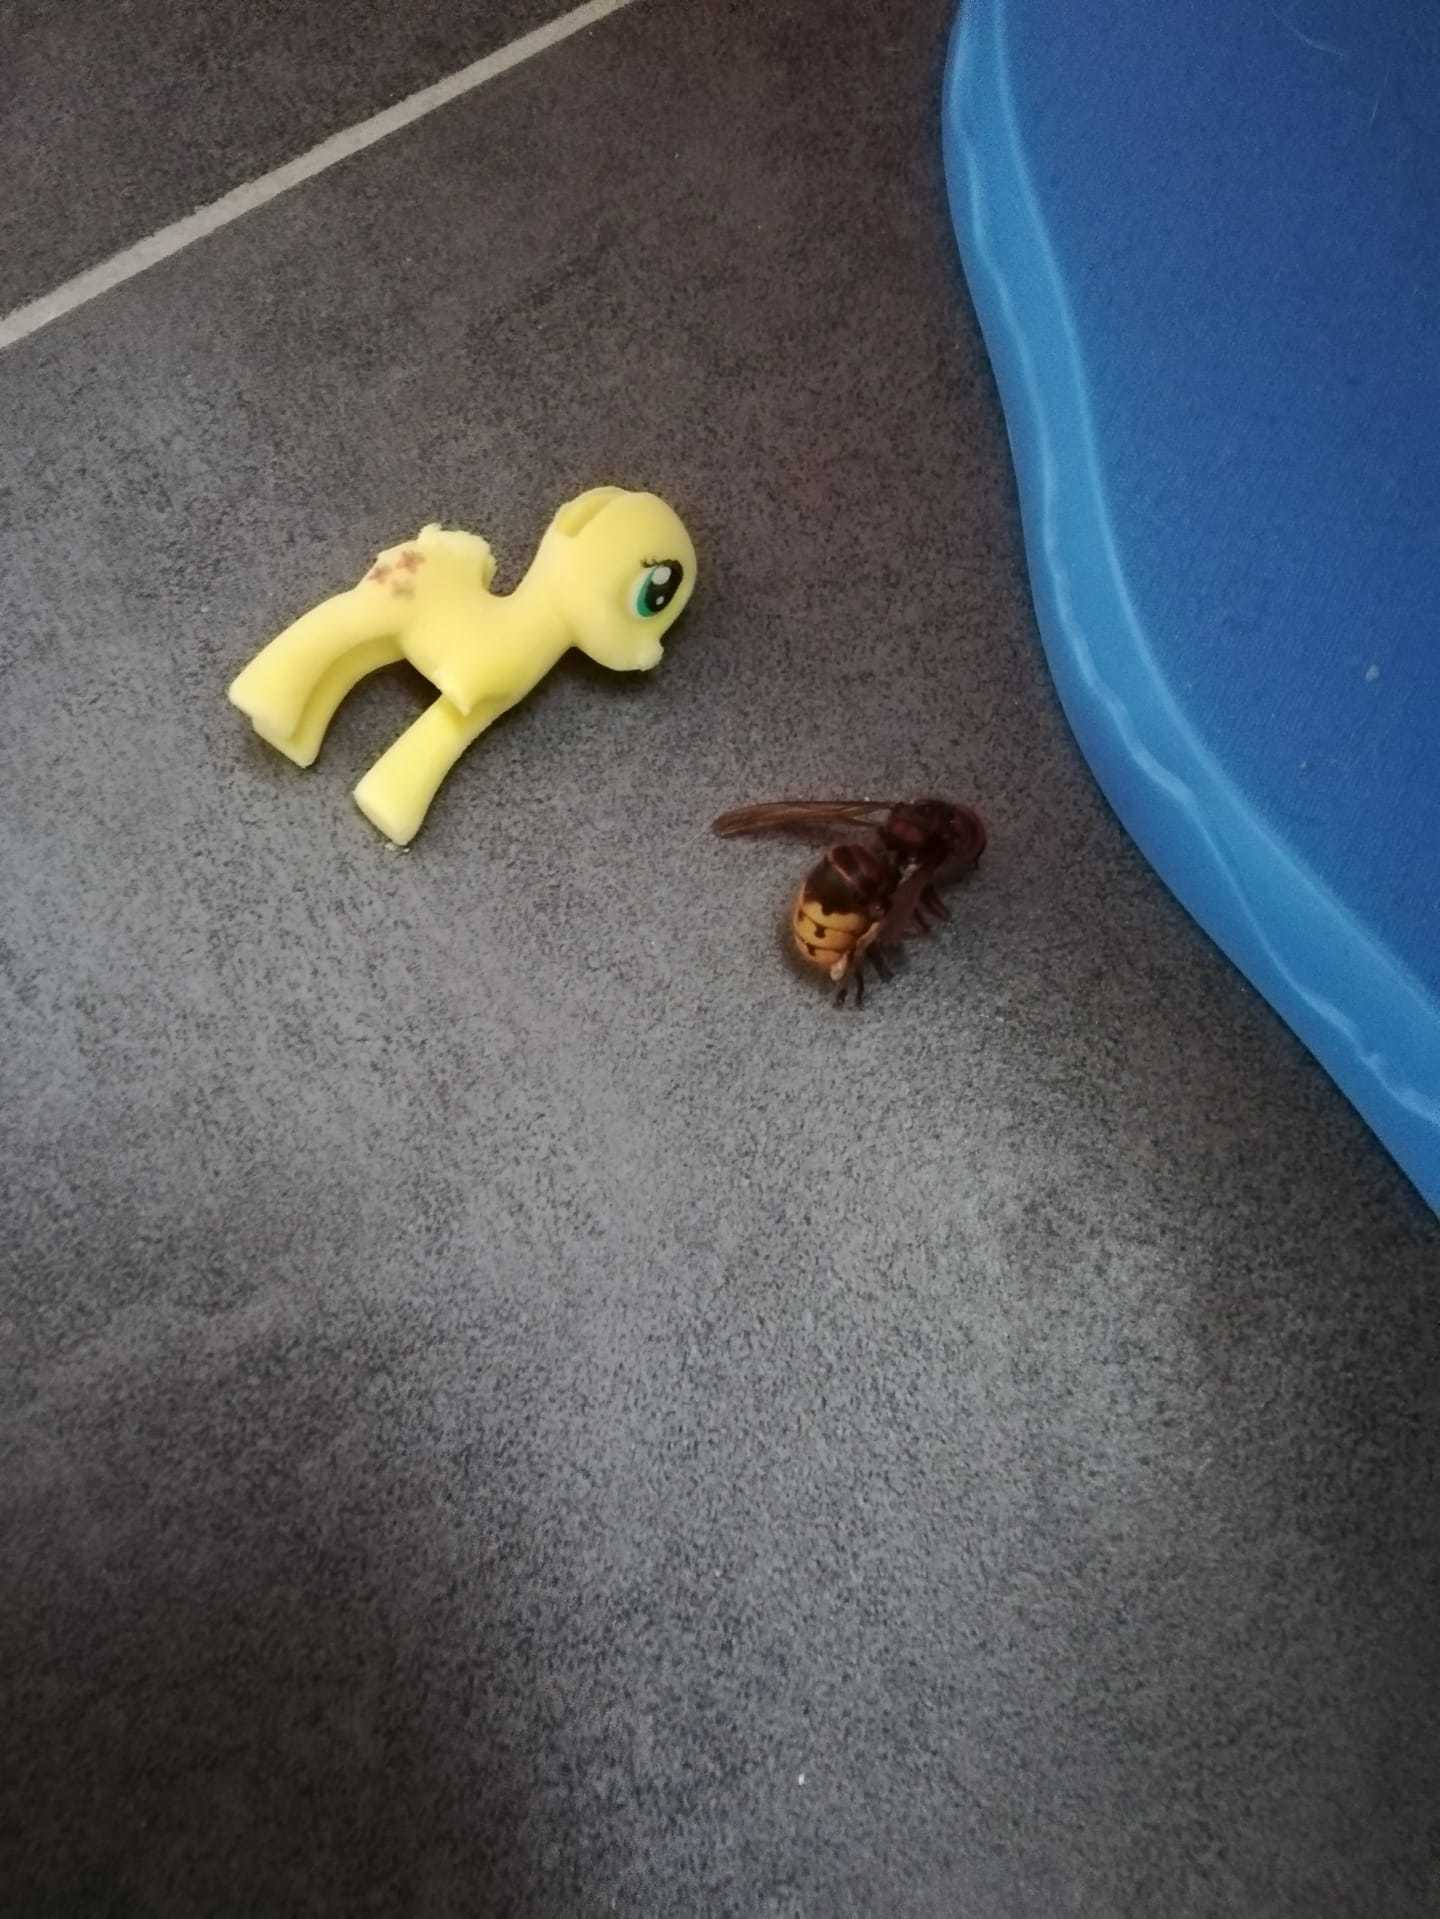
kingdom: Animalia
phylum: Arthropoda
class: Insecta
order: Hymenoptera
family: Vespidae
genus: Vespa
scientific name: Vespa crabro
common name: Hornet
